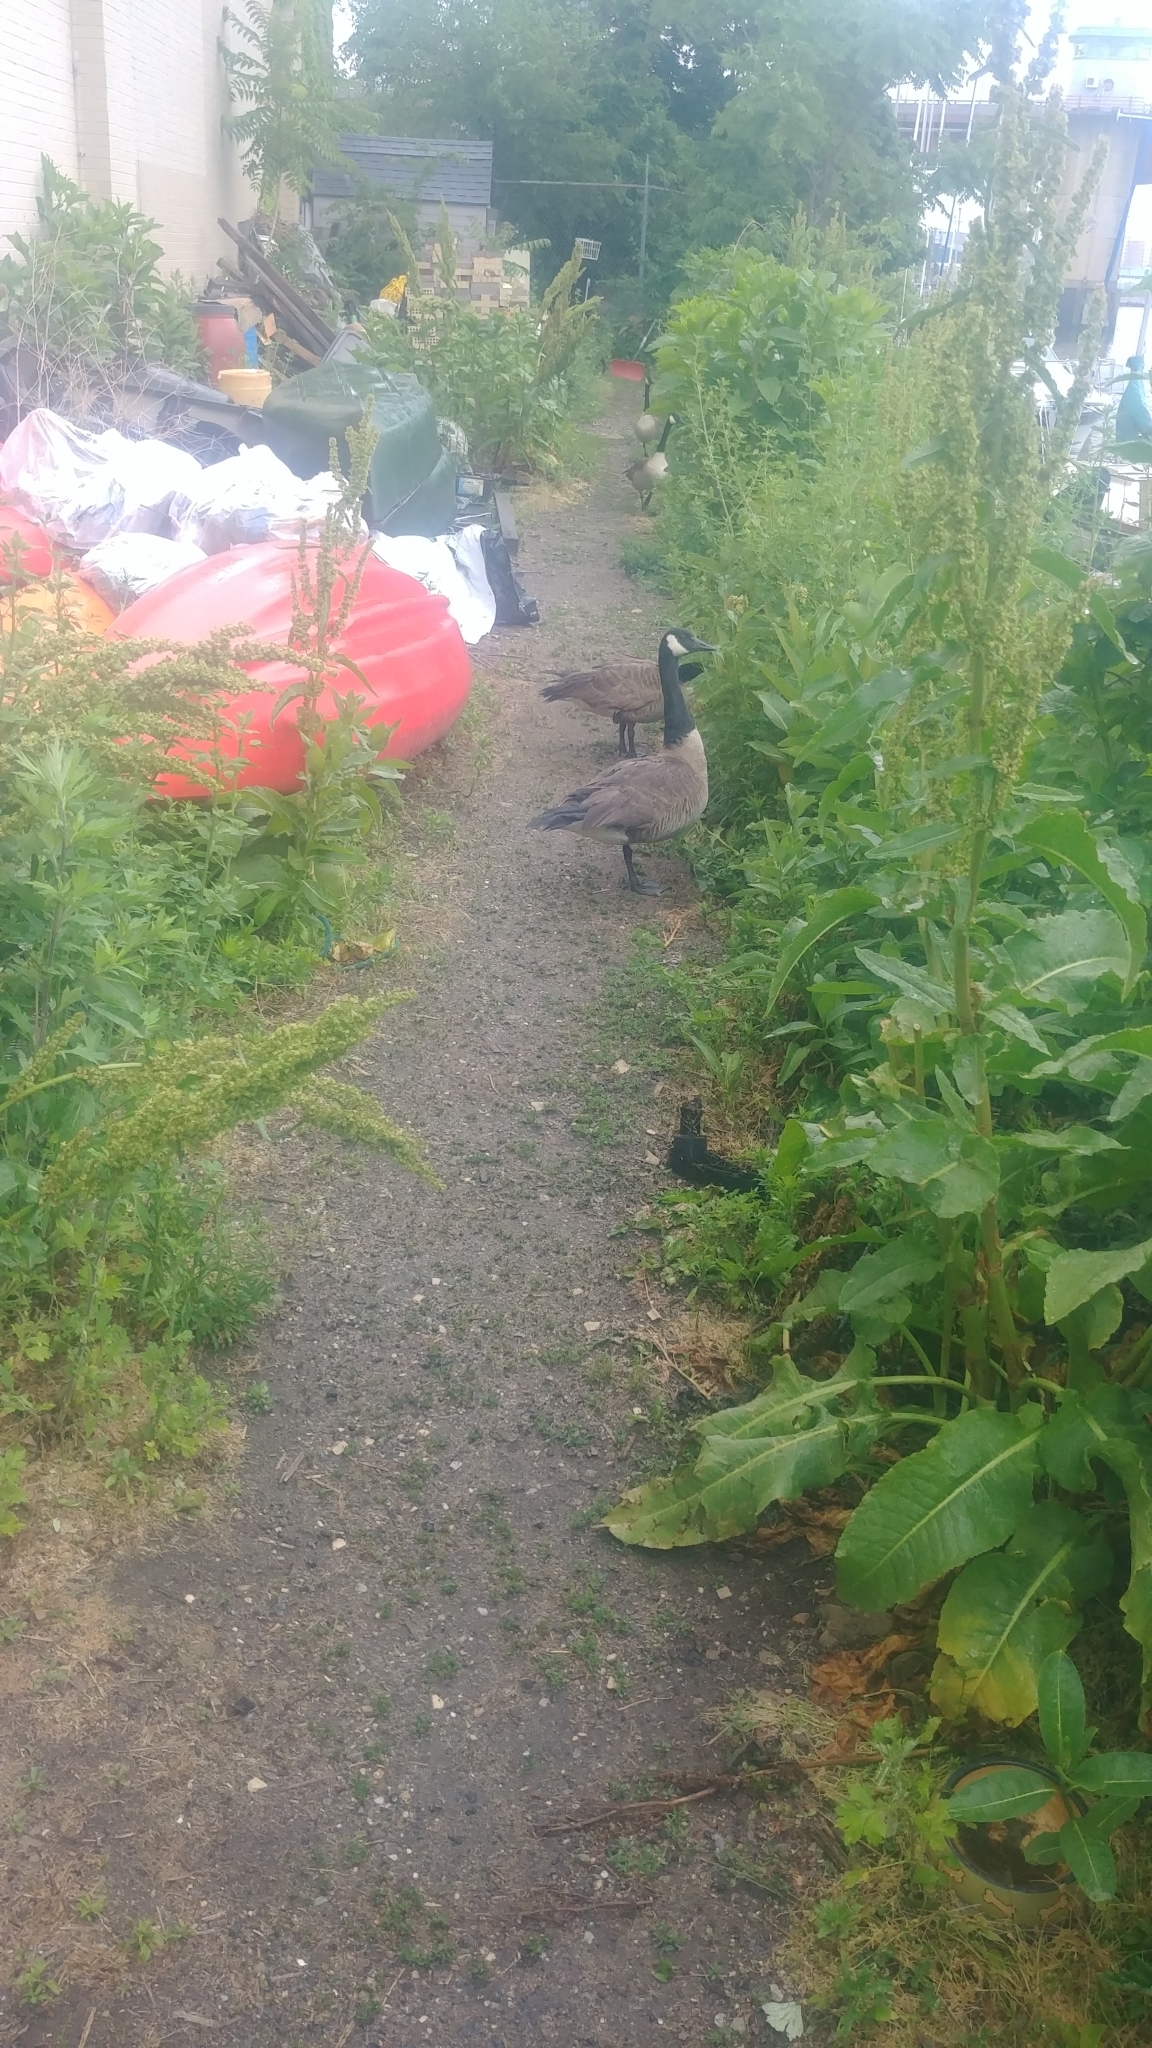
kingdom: Animalia
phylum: Chordata
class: Aves
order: Anseriformes
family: Anatidae
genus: Branta
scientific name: Branta canadensis
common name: Canada goose
